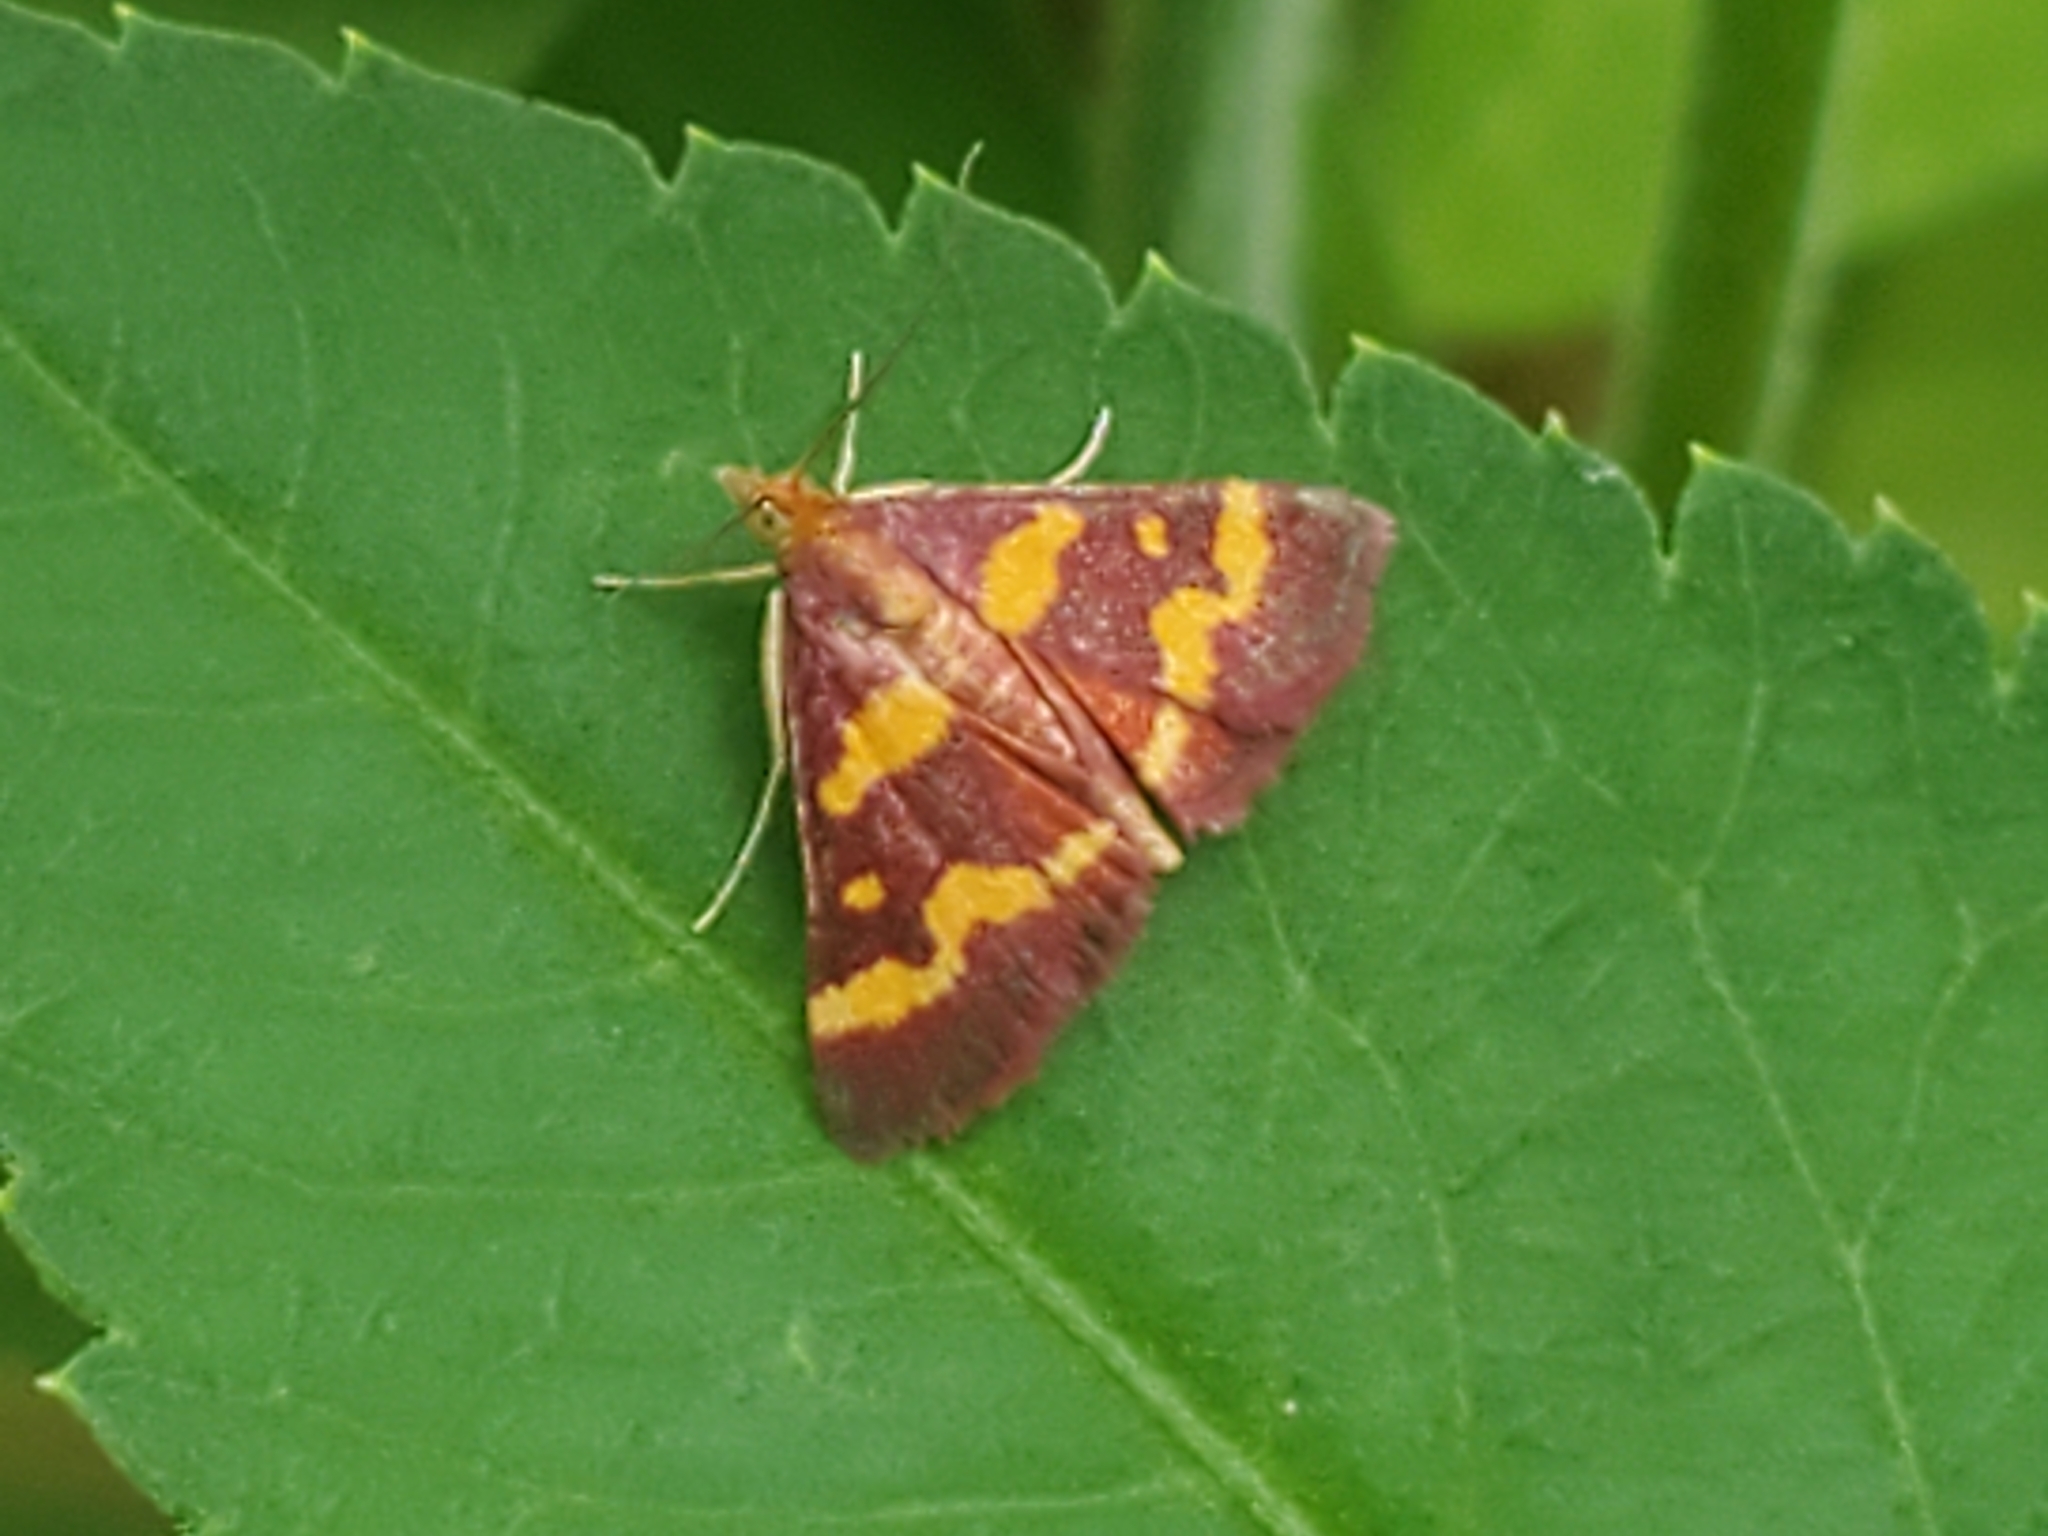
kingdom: Animalia
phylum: Arthropoda
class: Insecta
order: Lepidoptera
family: Crambidae
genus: Pyrausta
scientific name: Pyrausta tyralis
